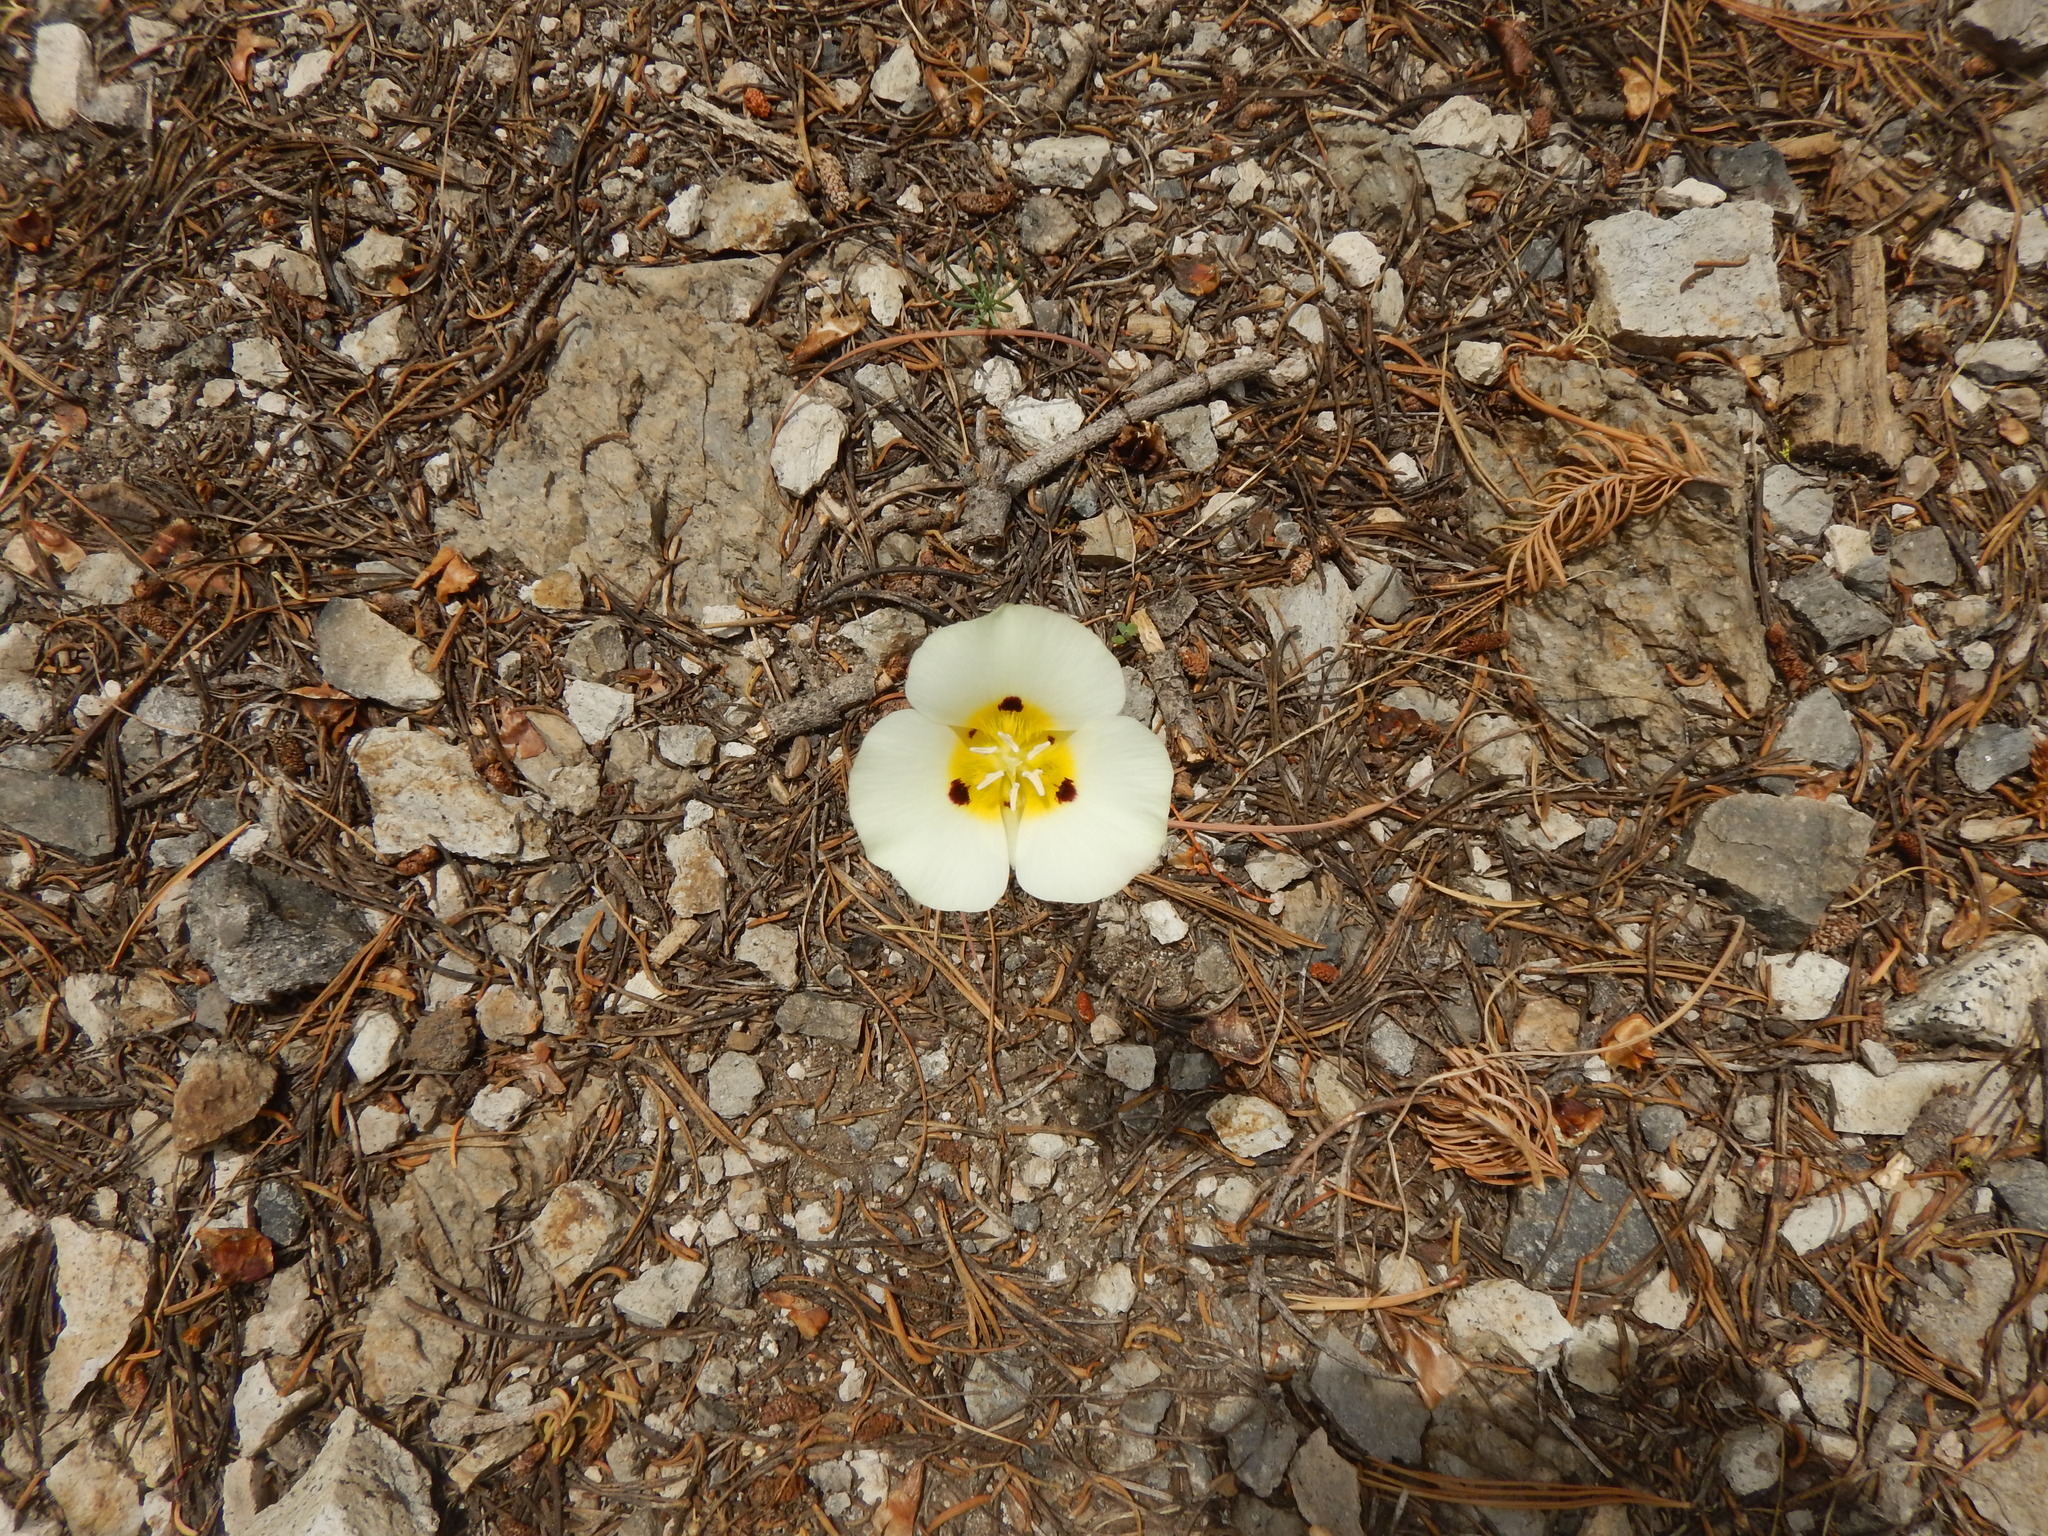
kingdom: Plantae
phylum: Tracheophyta
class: Liliopsida
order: Liliales
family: Liliaceae
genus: Calochortus
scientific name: Calochortus leichtlinii
